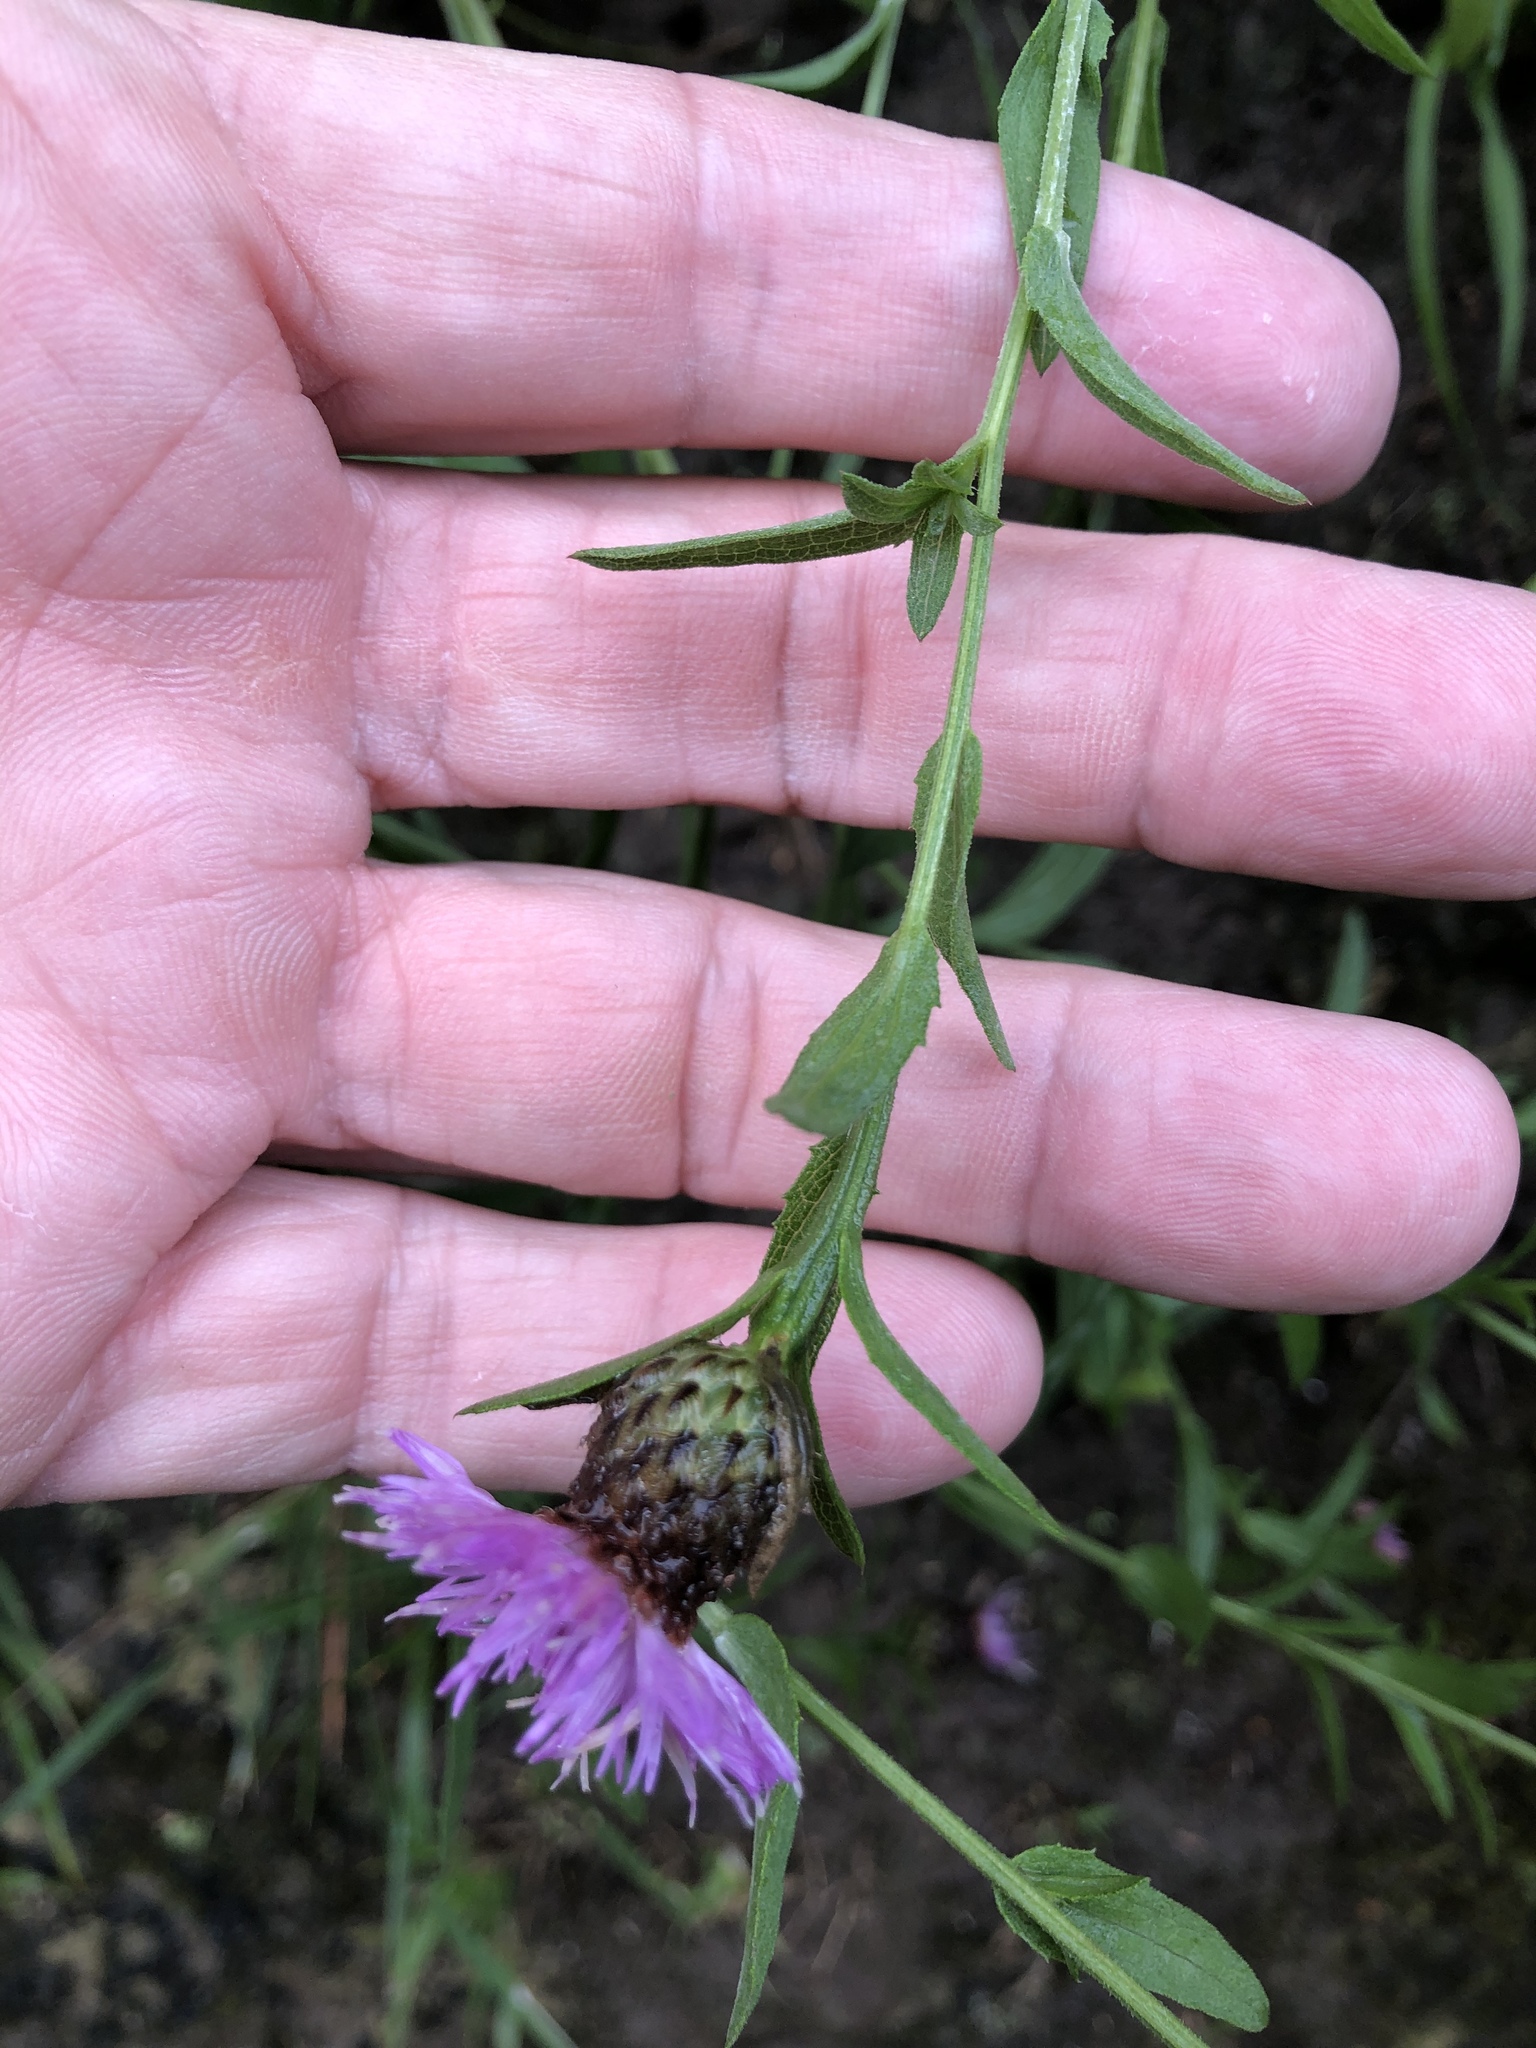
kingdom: Plantae
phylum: Tracheophyta
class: Magnoliopsida
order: Asterales
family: Asteraceae
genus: Centaurea
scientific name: Centaurea nigra
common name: Lesser knapweed
